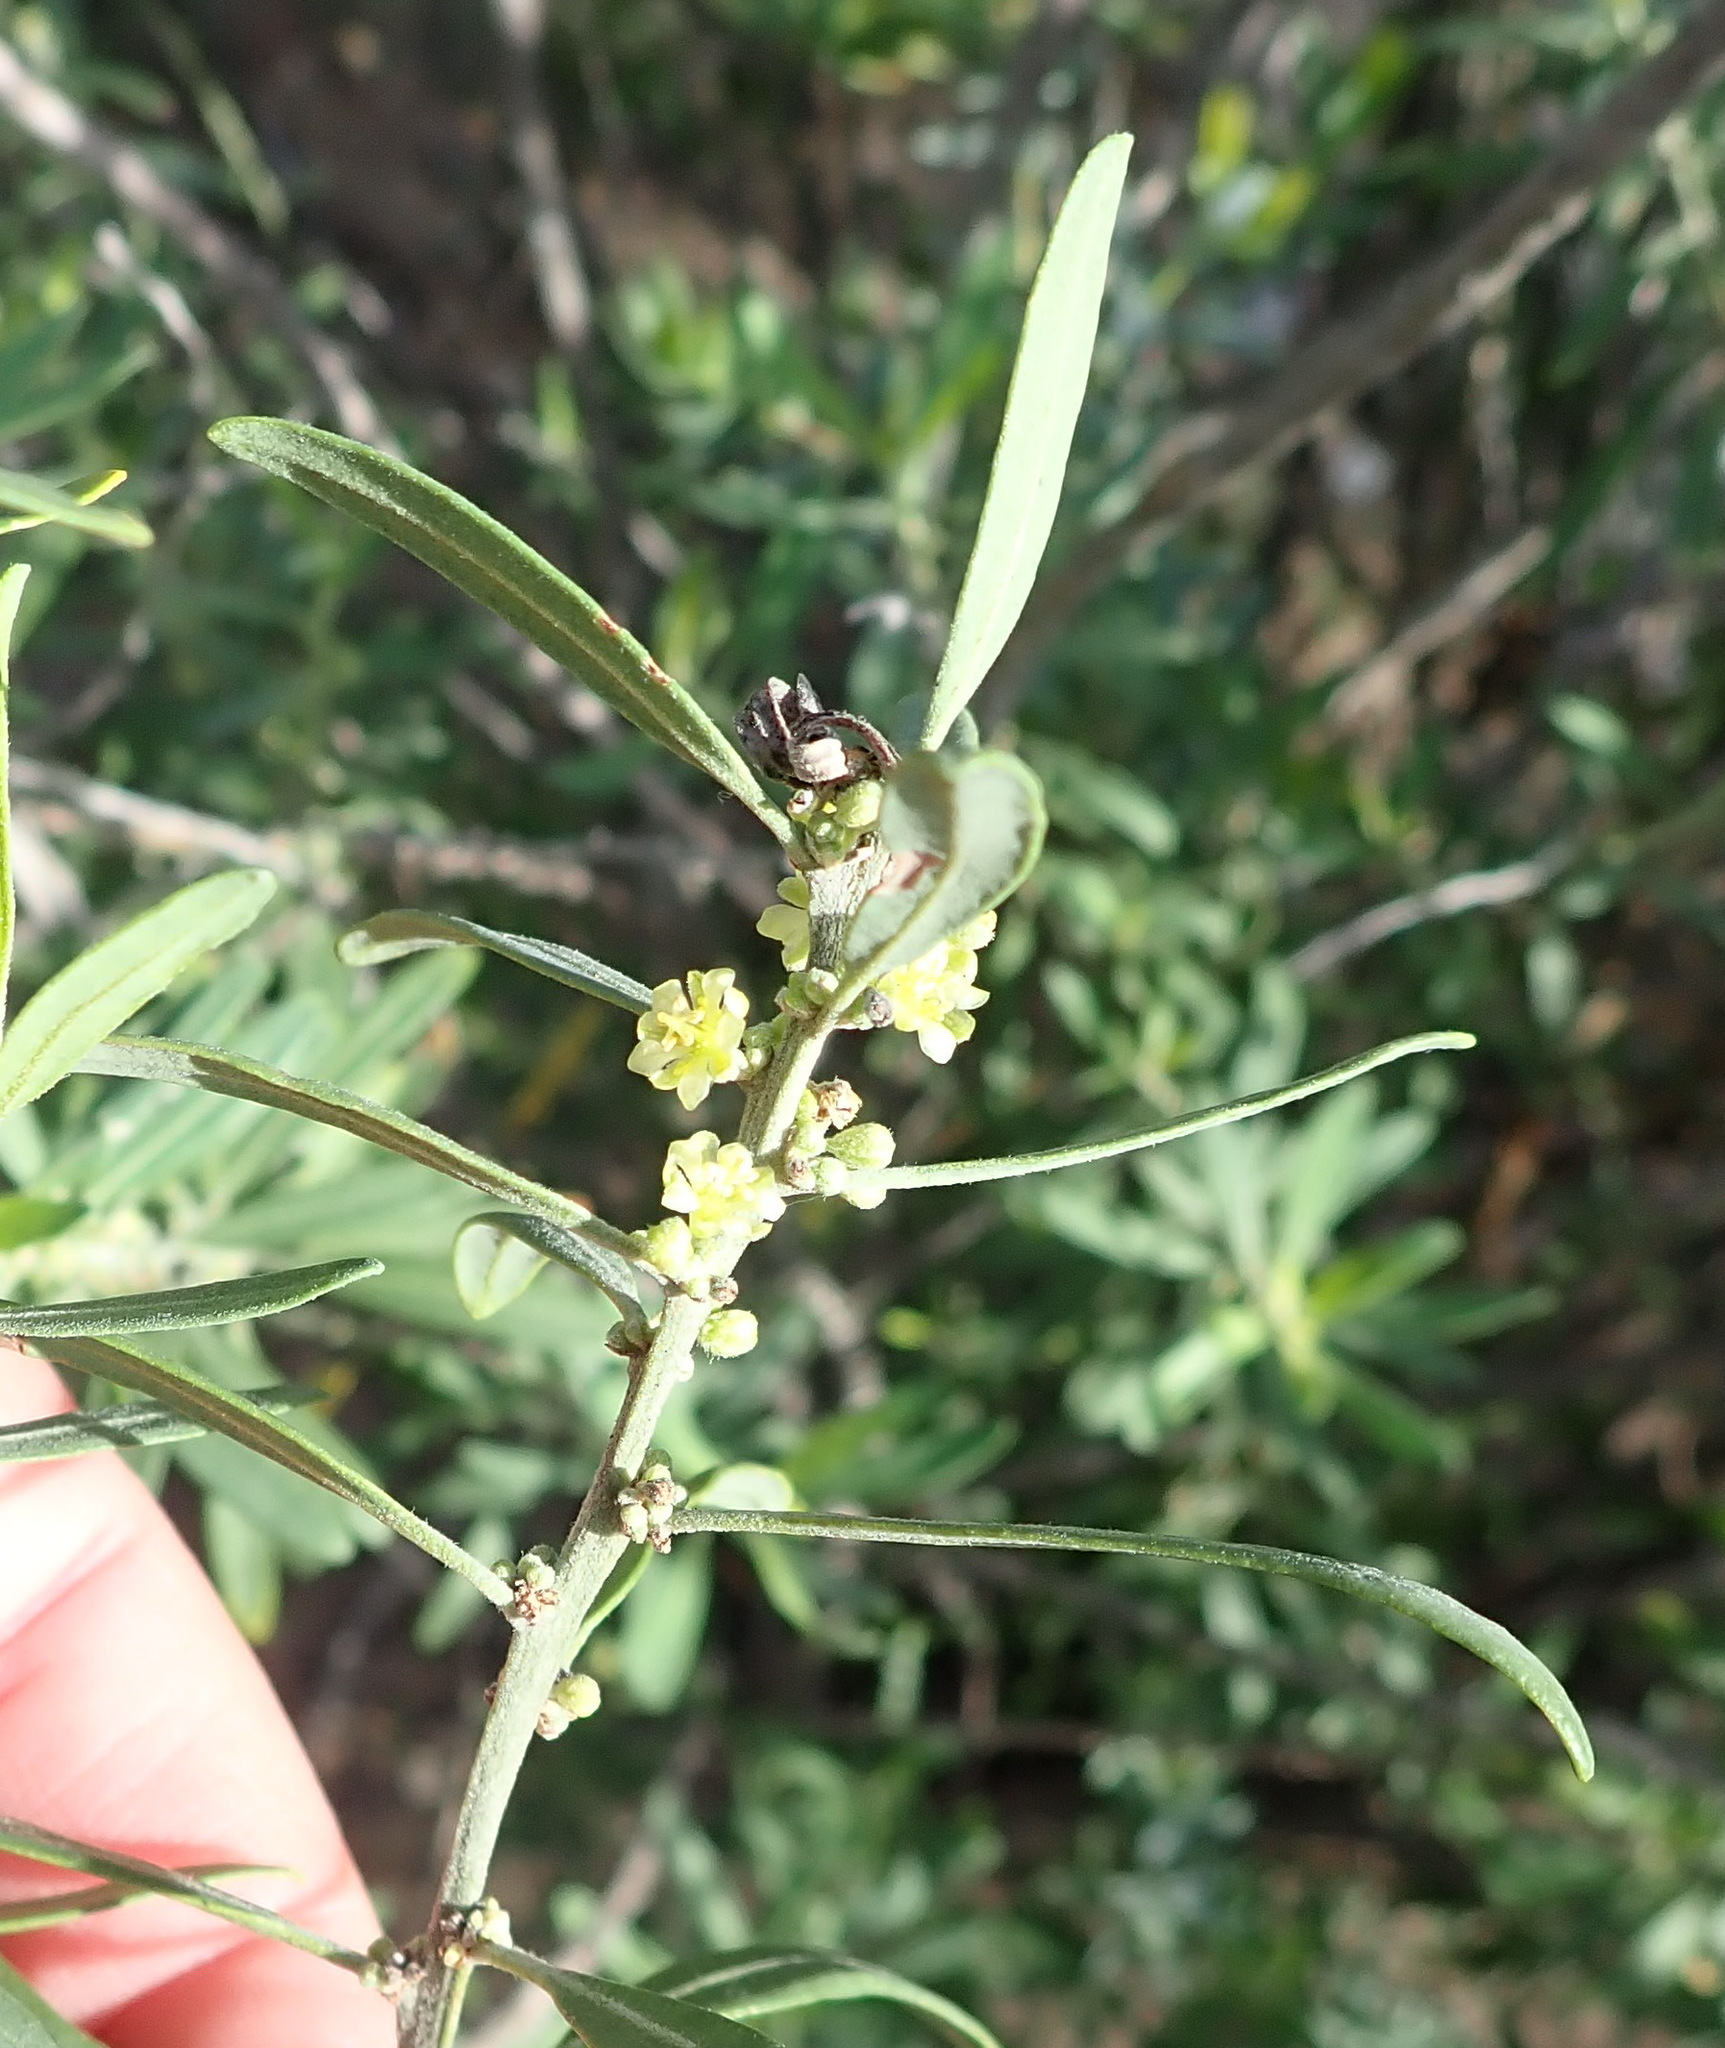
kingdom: Plantae
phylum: Tracheophyta
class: Magnoliopsida
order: Malpighiales
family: Peraceae
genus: Clutia
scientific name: Clutia affinis
